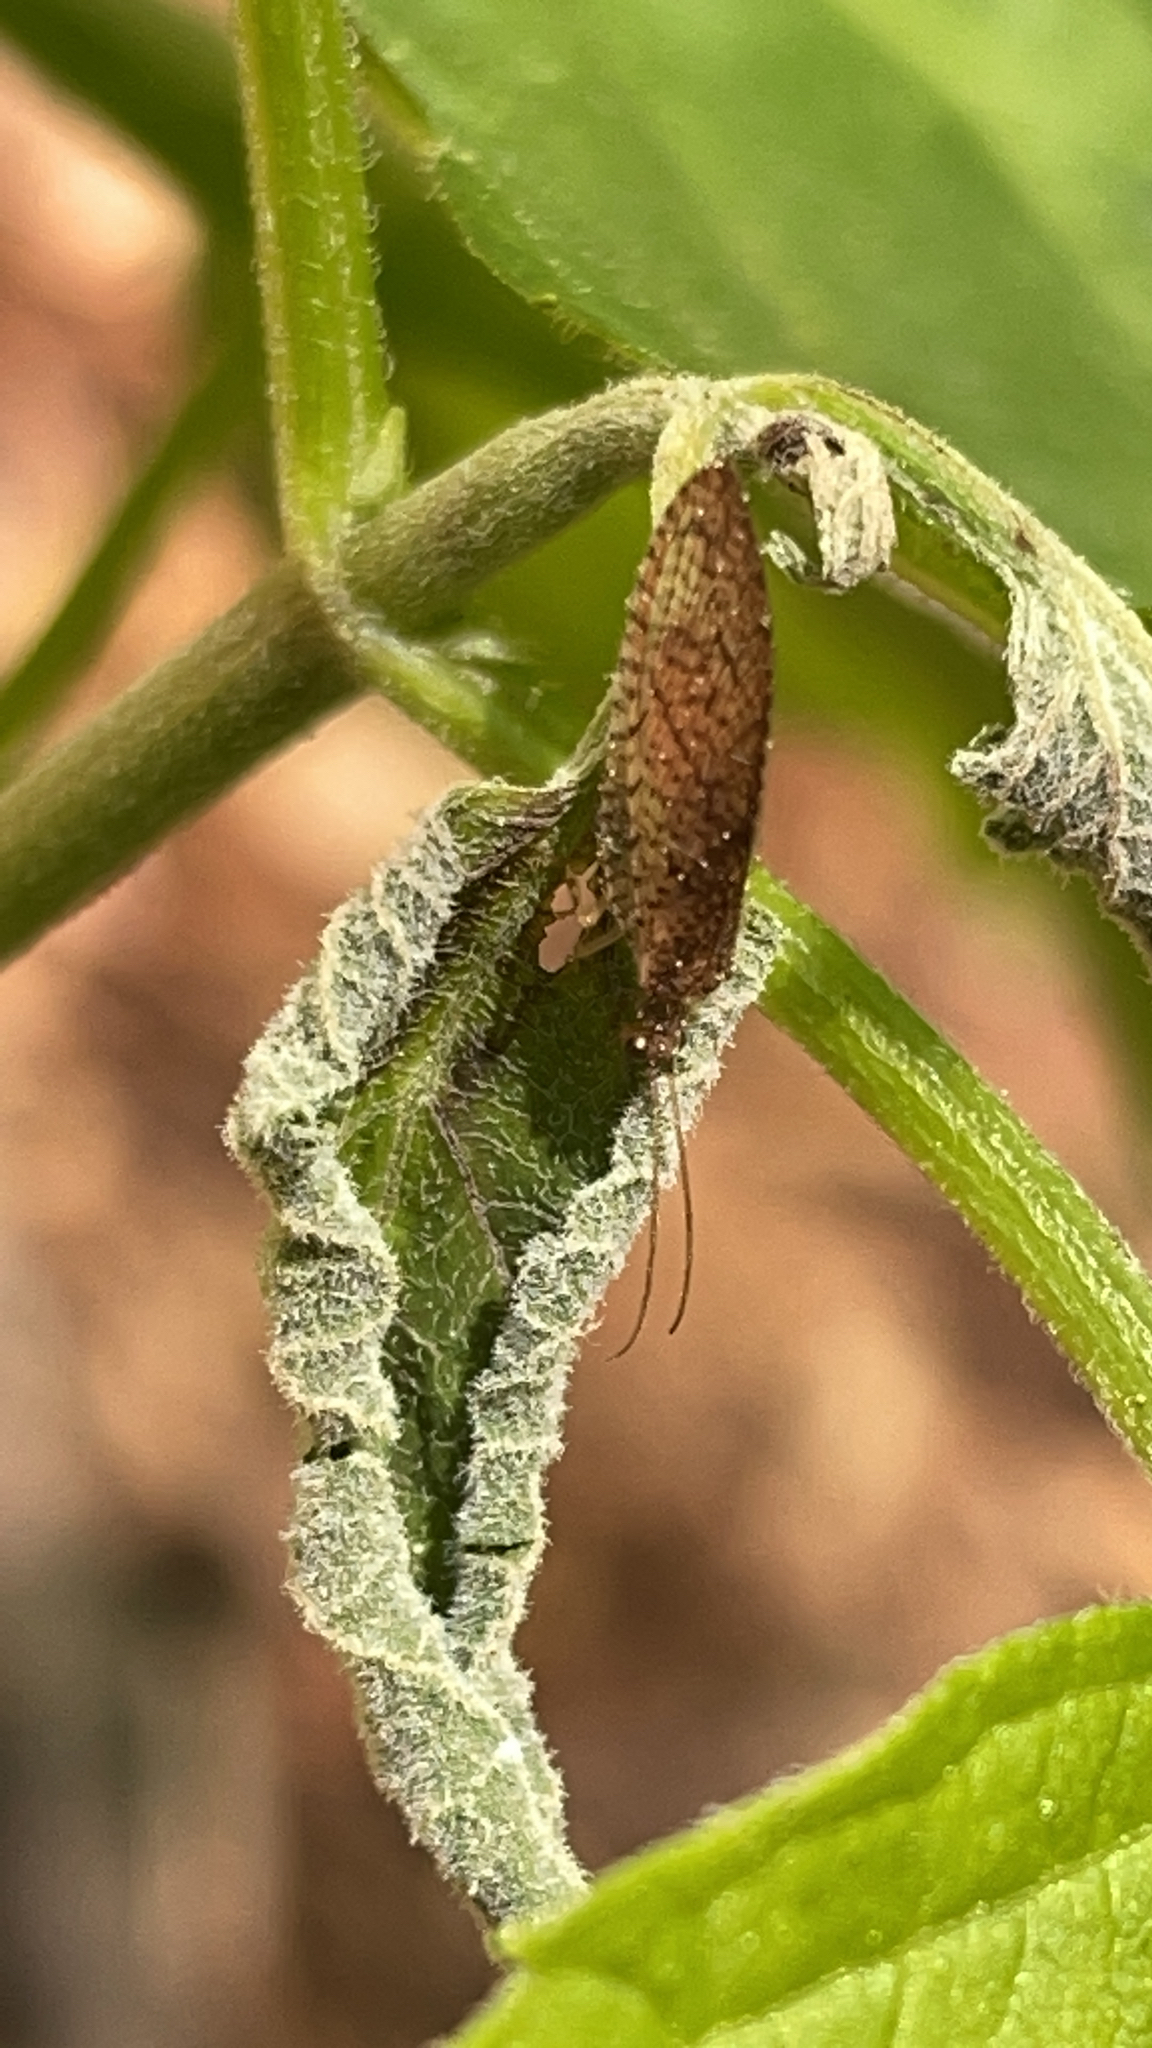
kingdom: Animalia
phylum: Arthropoda
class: Insecta
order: Neuroptera
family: Hemerobiidae
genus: Micromus
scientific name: Micromus posticus
